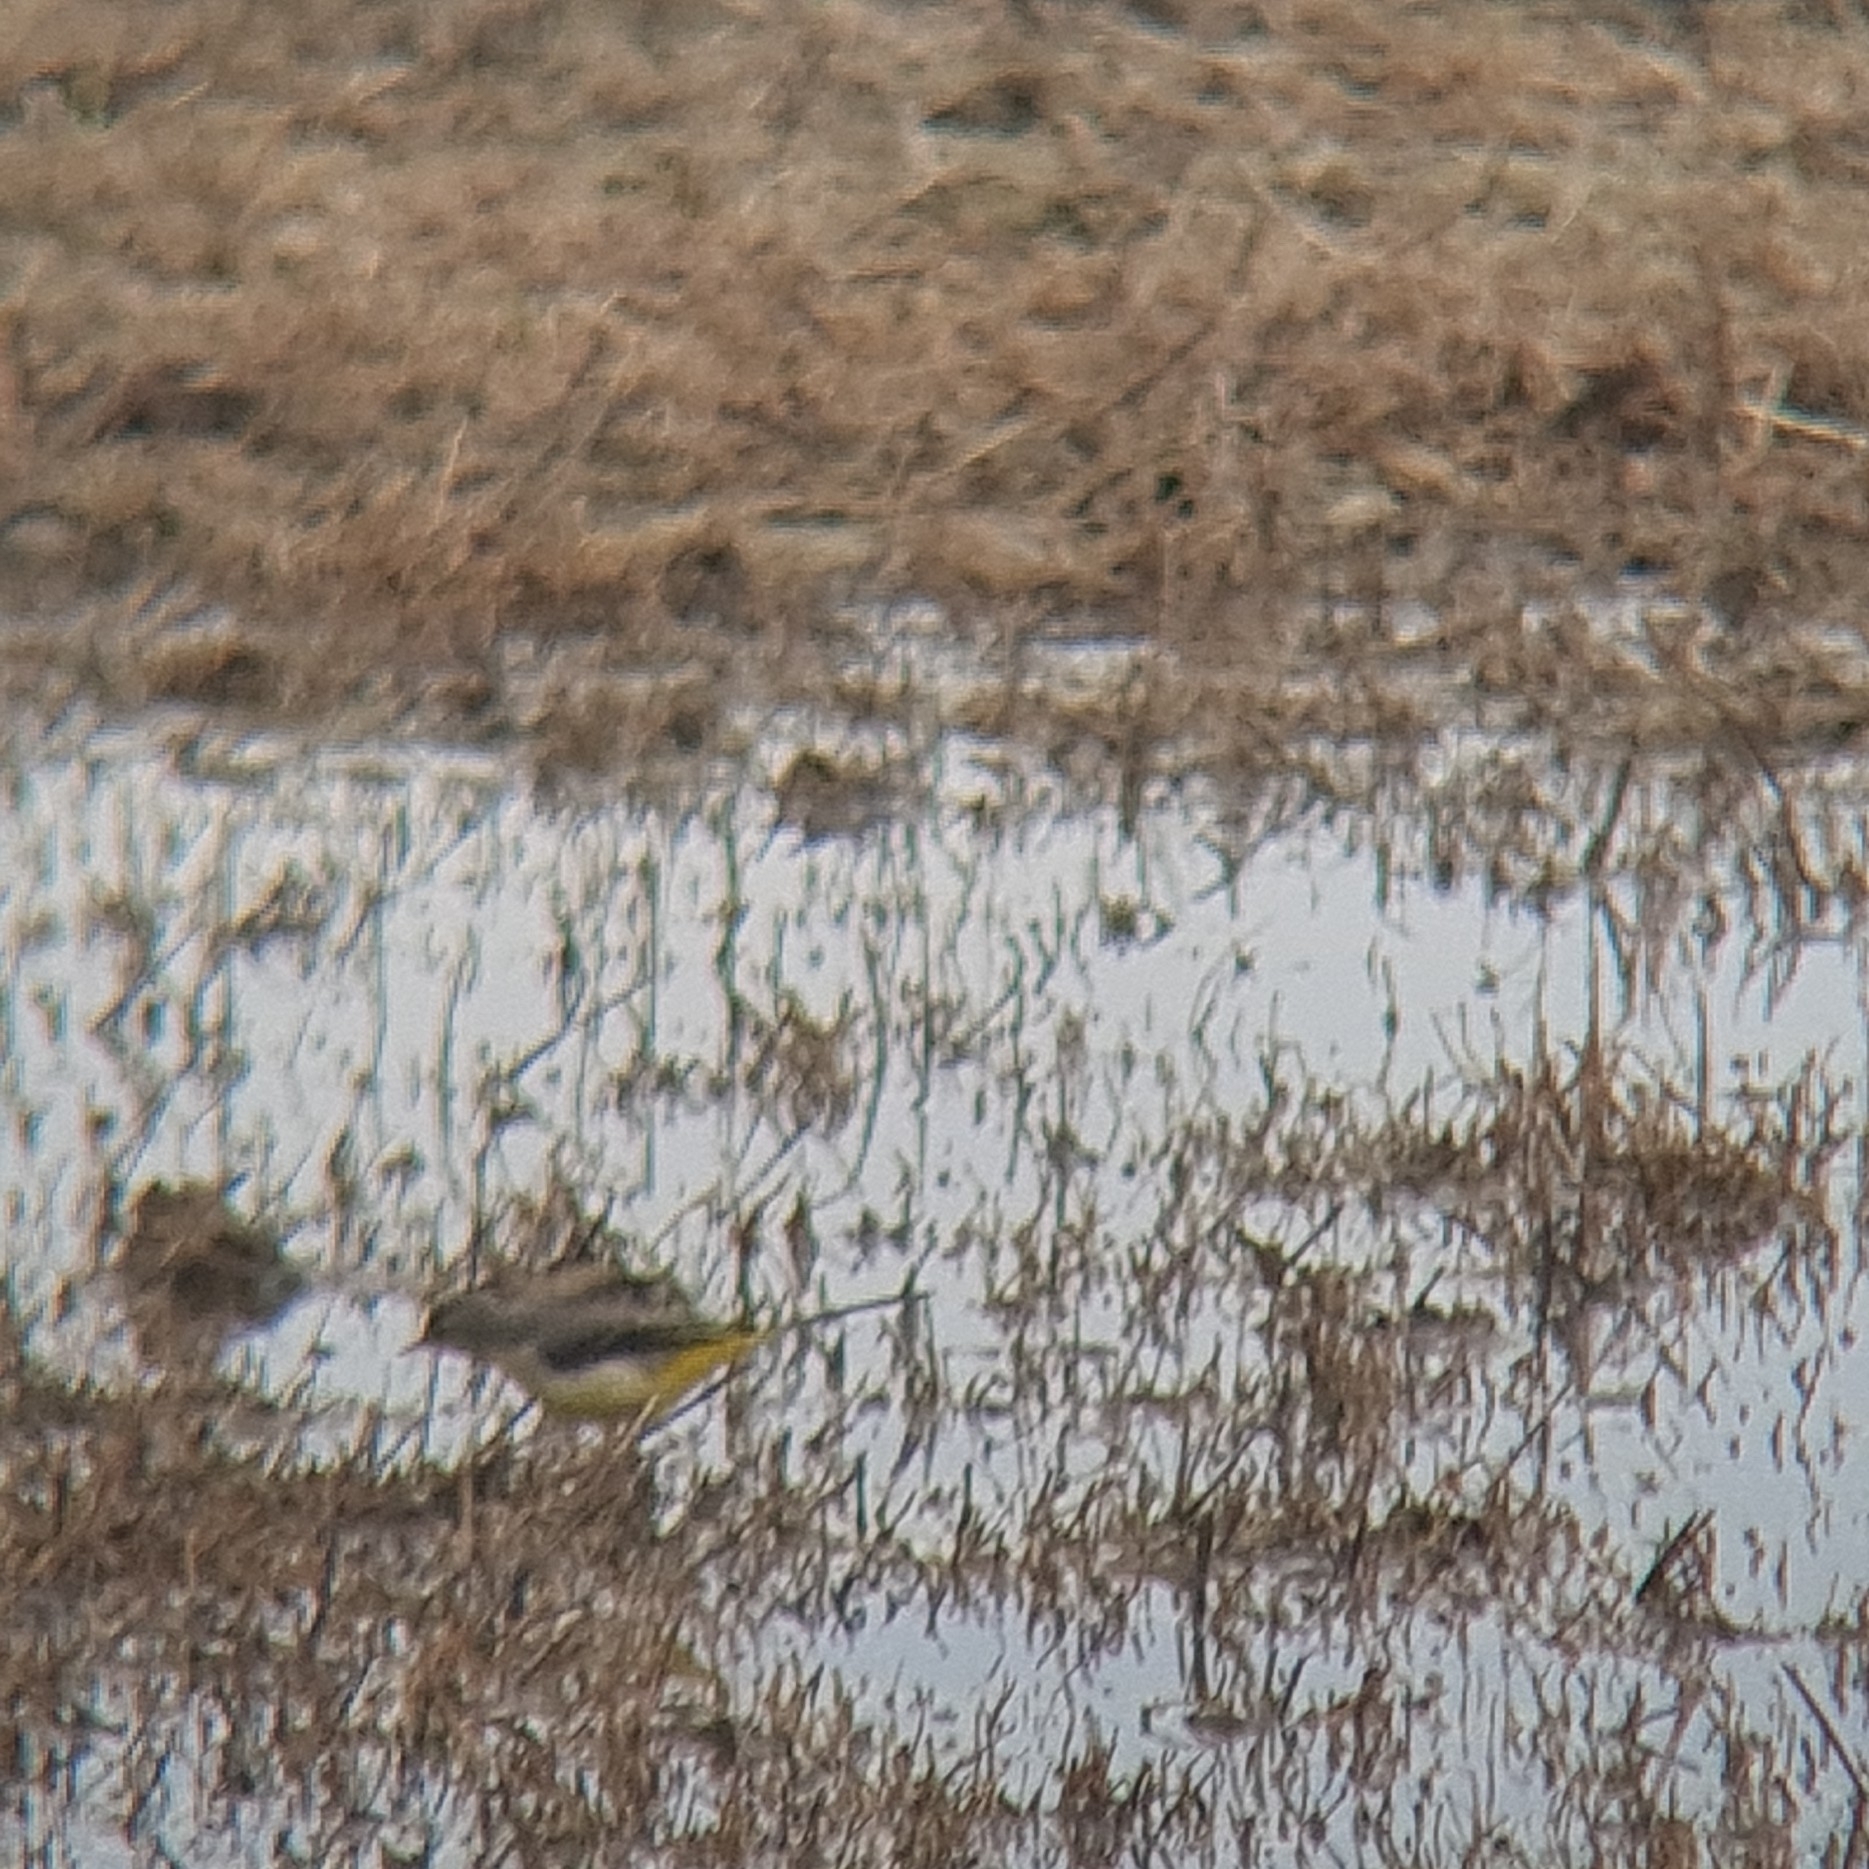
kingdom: Animalia
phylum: Chordata
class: Aves
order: Passeriformes
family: Motacillidae
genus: Motacilla
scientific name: Motacilla cinerea
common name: Grey wagtail
